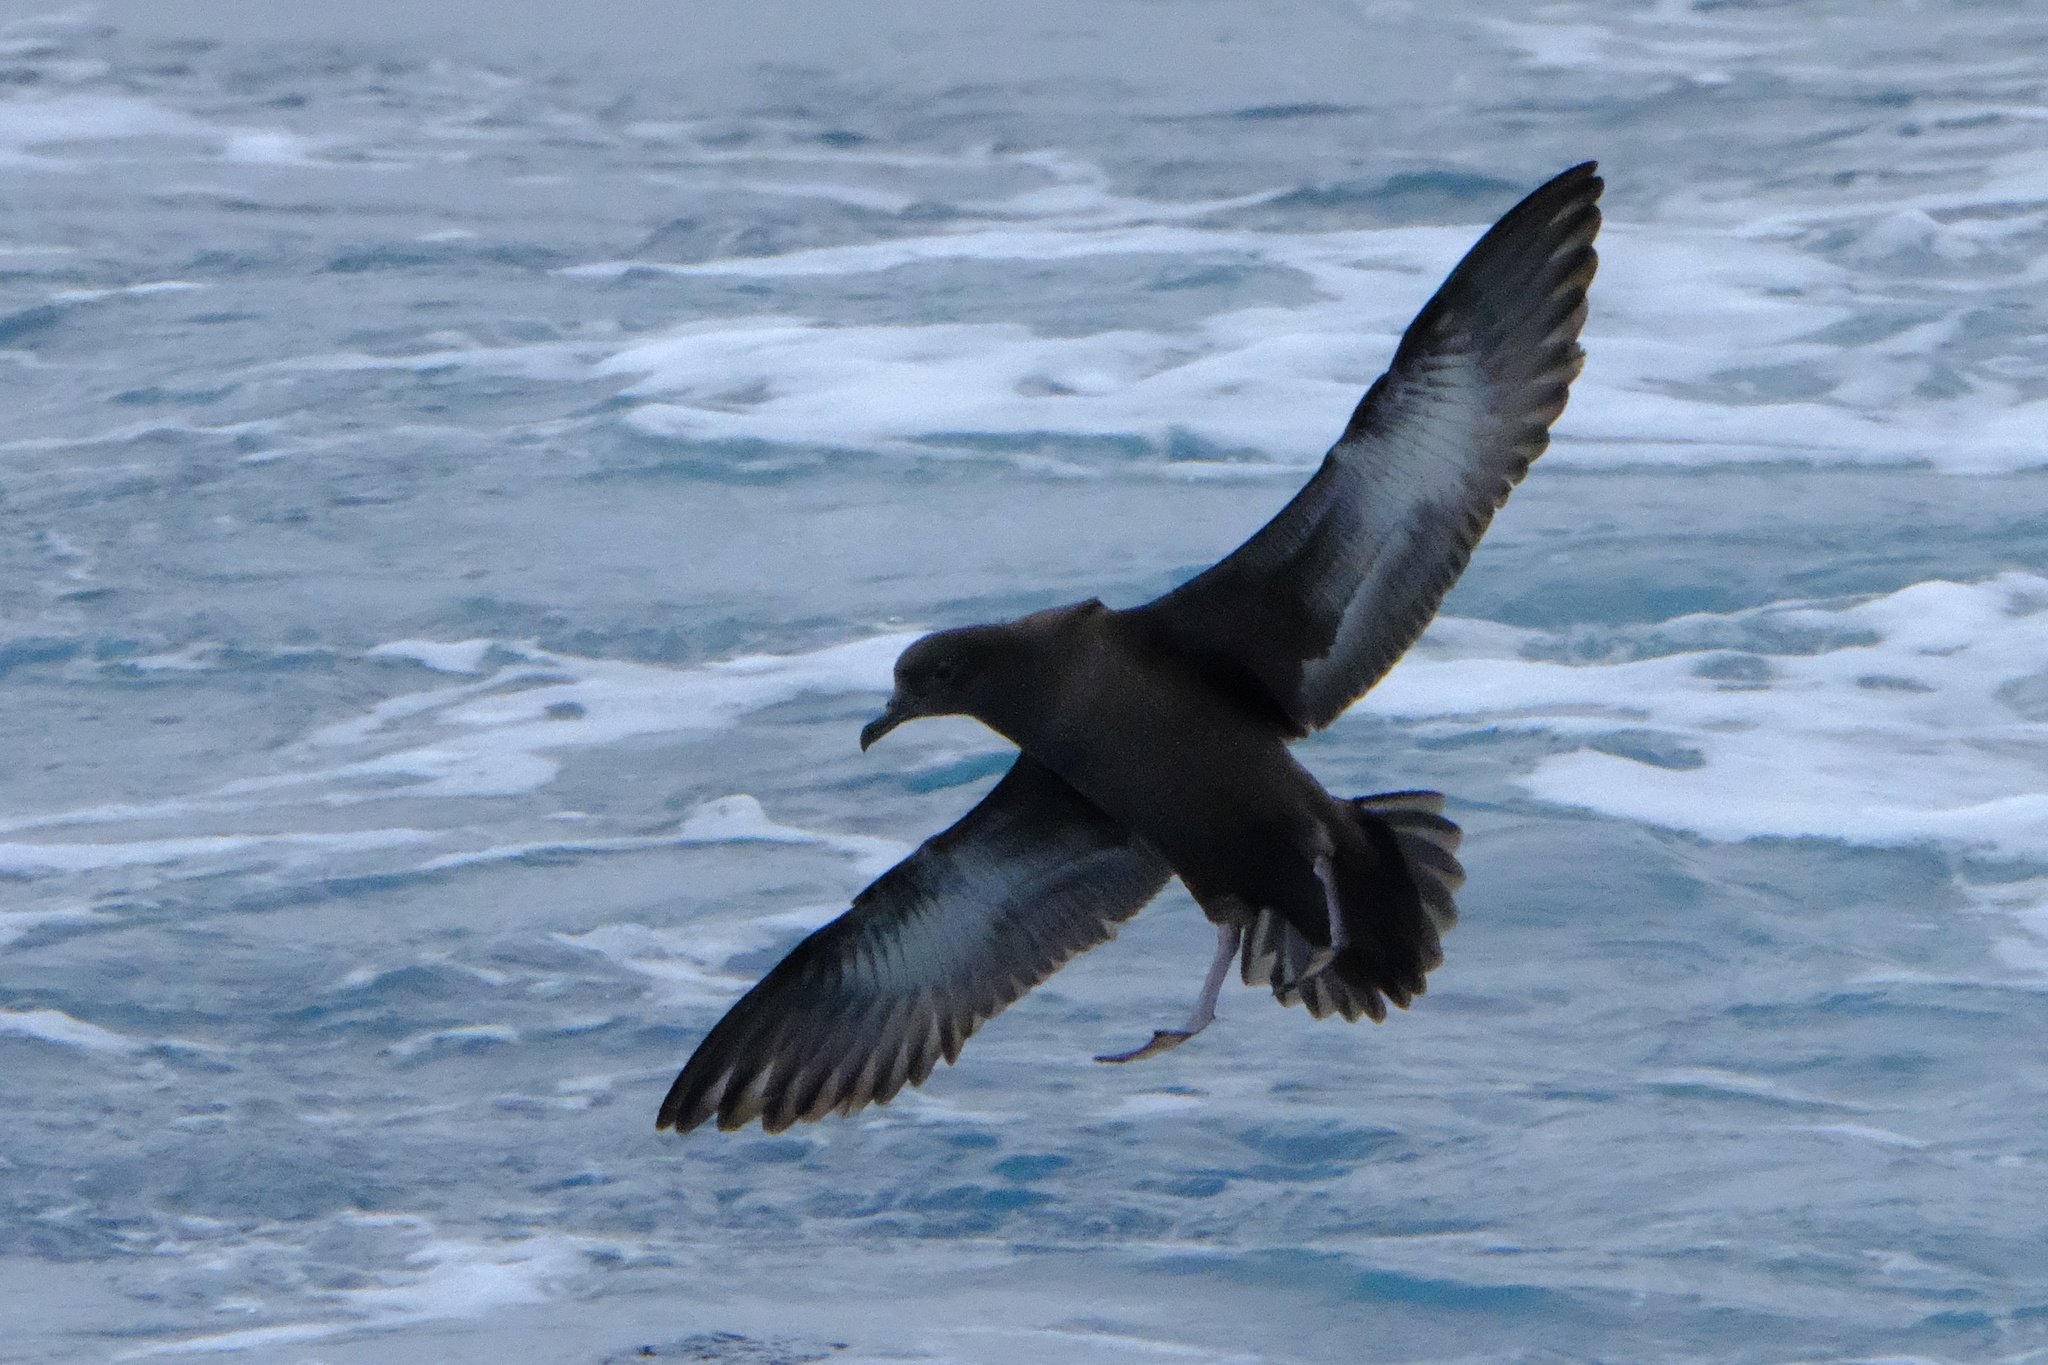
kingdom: Animalia
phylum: Chordata
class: Aves
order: Procellariiformes
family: Procellariidae
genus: Puffinus
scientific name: Puffinus griseus
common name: Sooty shearwater
